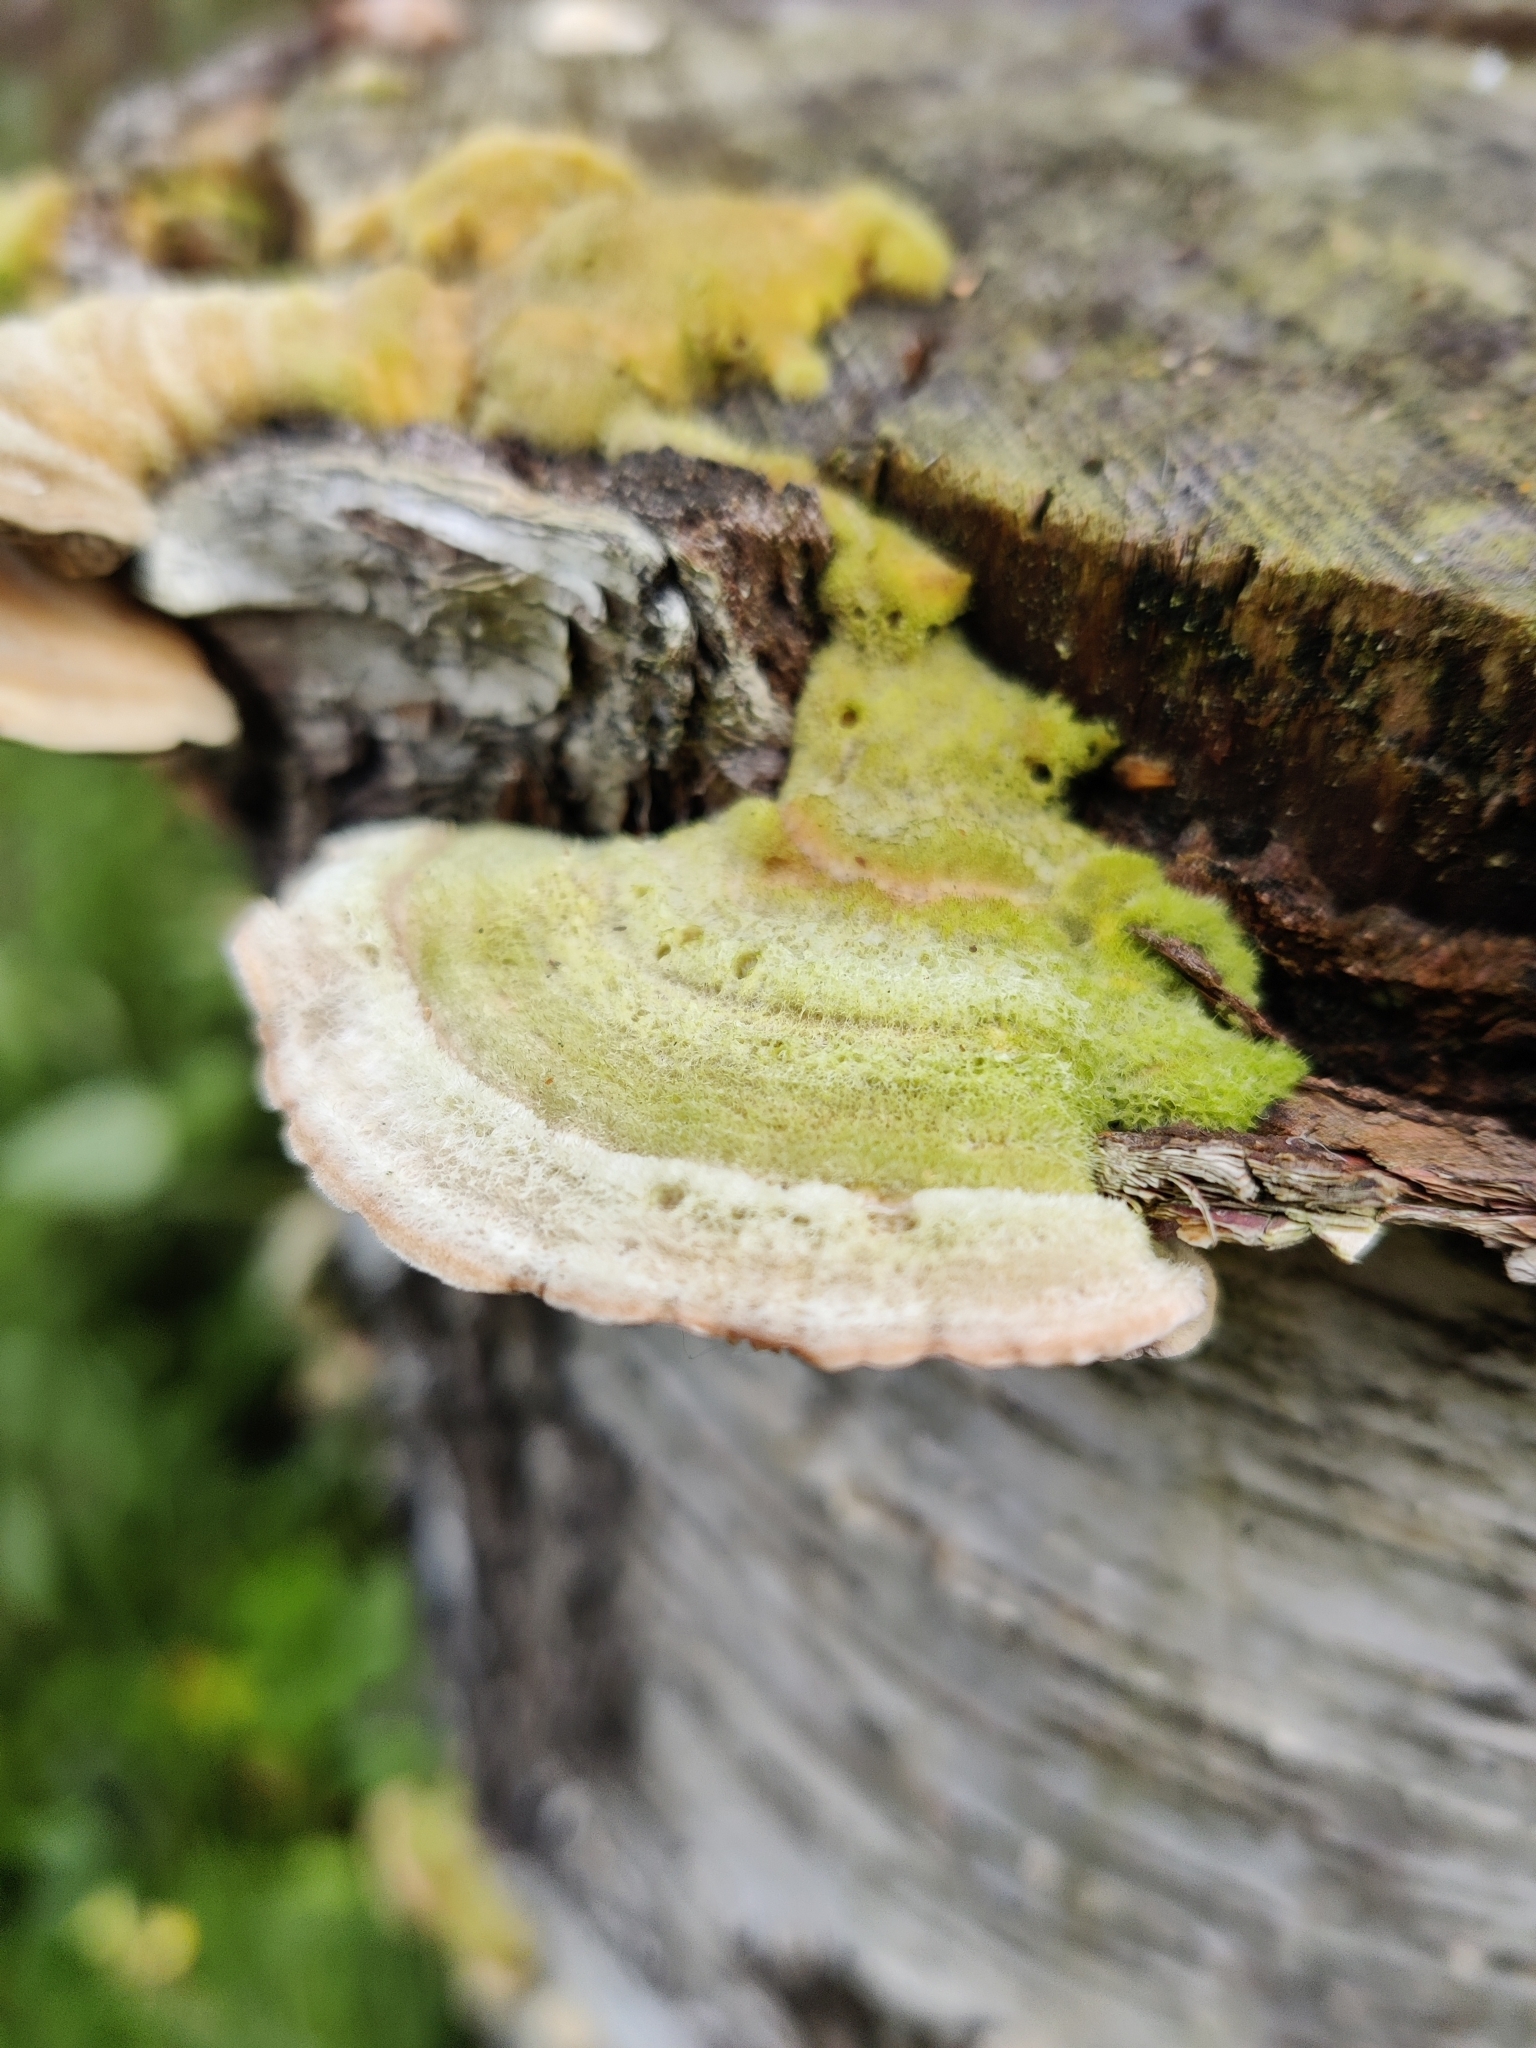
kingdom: Fungi
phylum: Basidiomycota
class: Agaricomycetes
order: Polyporales
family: Polyporaceae
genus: Lenzites
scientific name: Lenzites betulinus
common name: Birch mazegill
